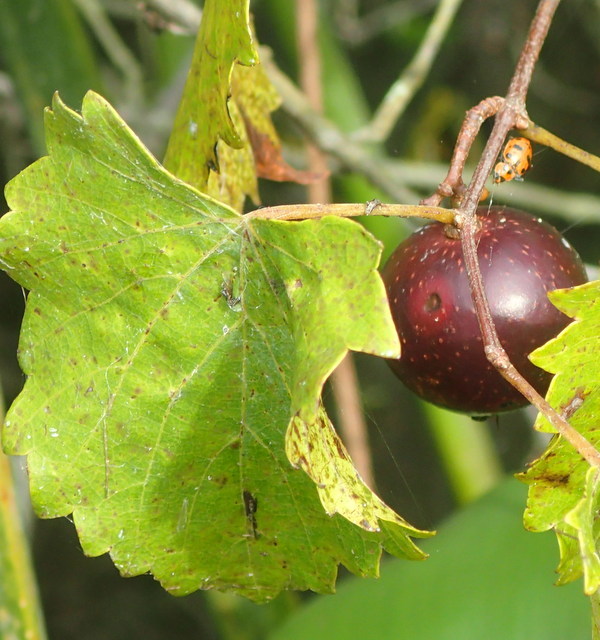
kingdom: Plantae
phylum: Tracheophyta
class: Magnoliopsida
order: Vitales
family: Vitaceae
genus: Vitis
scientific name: Vitis rotundifolia
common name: Muscadine grape
